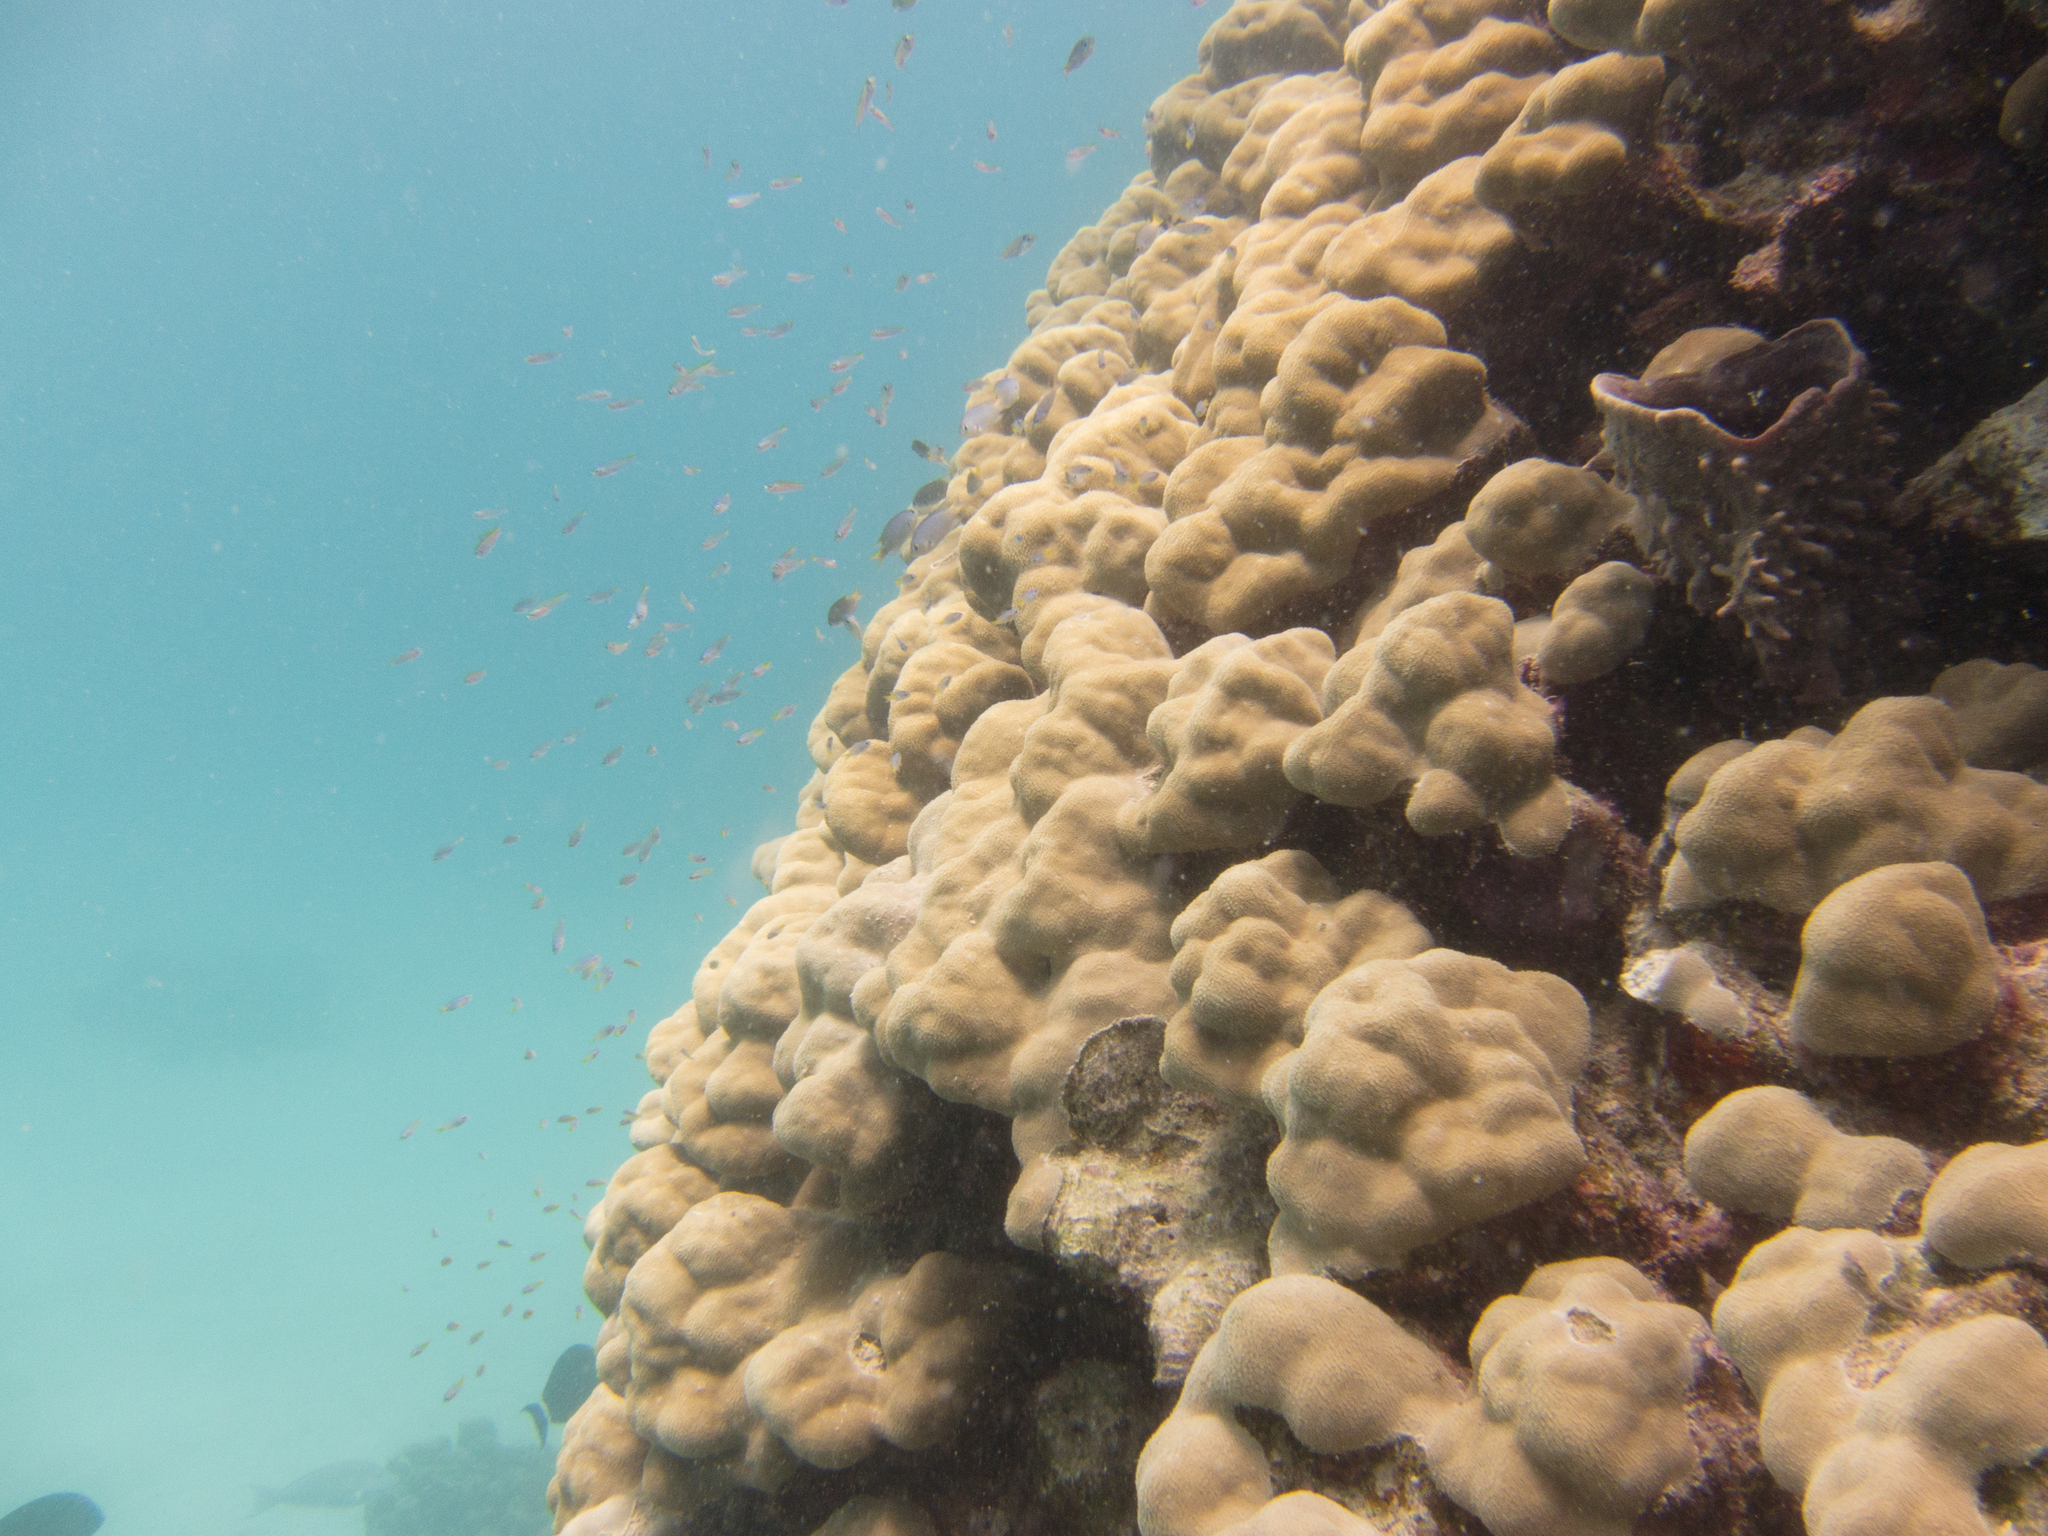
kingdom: Animalia
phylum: Porifera
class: Demospongiae
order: Haplosclerida
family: Callyspongiidae
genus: Callyspongia
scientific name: Callyspongia crassa
